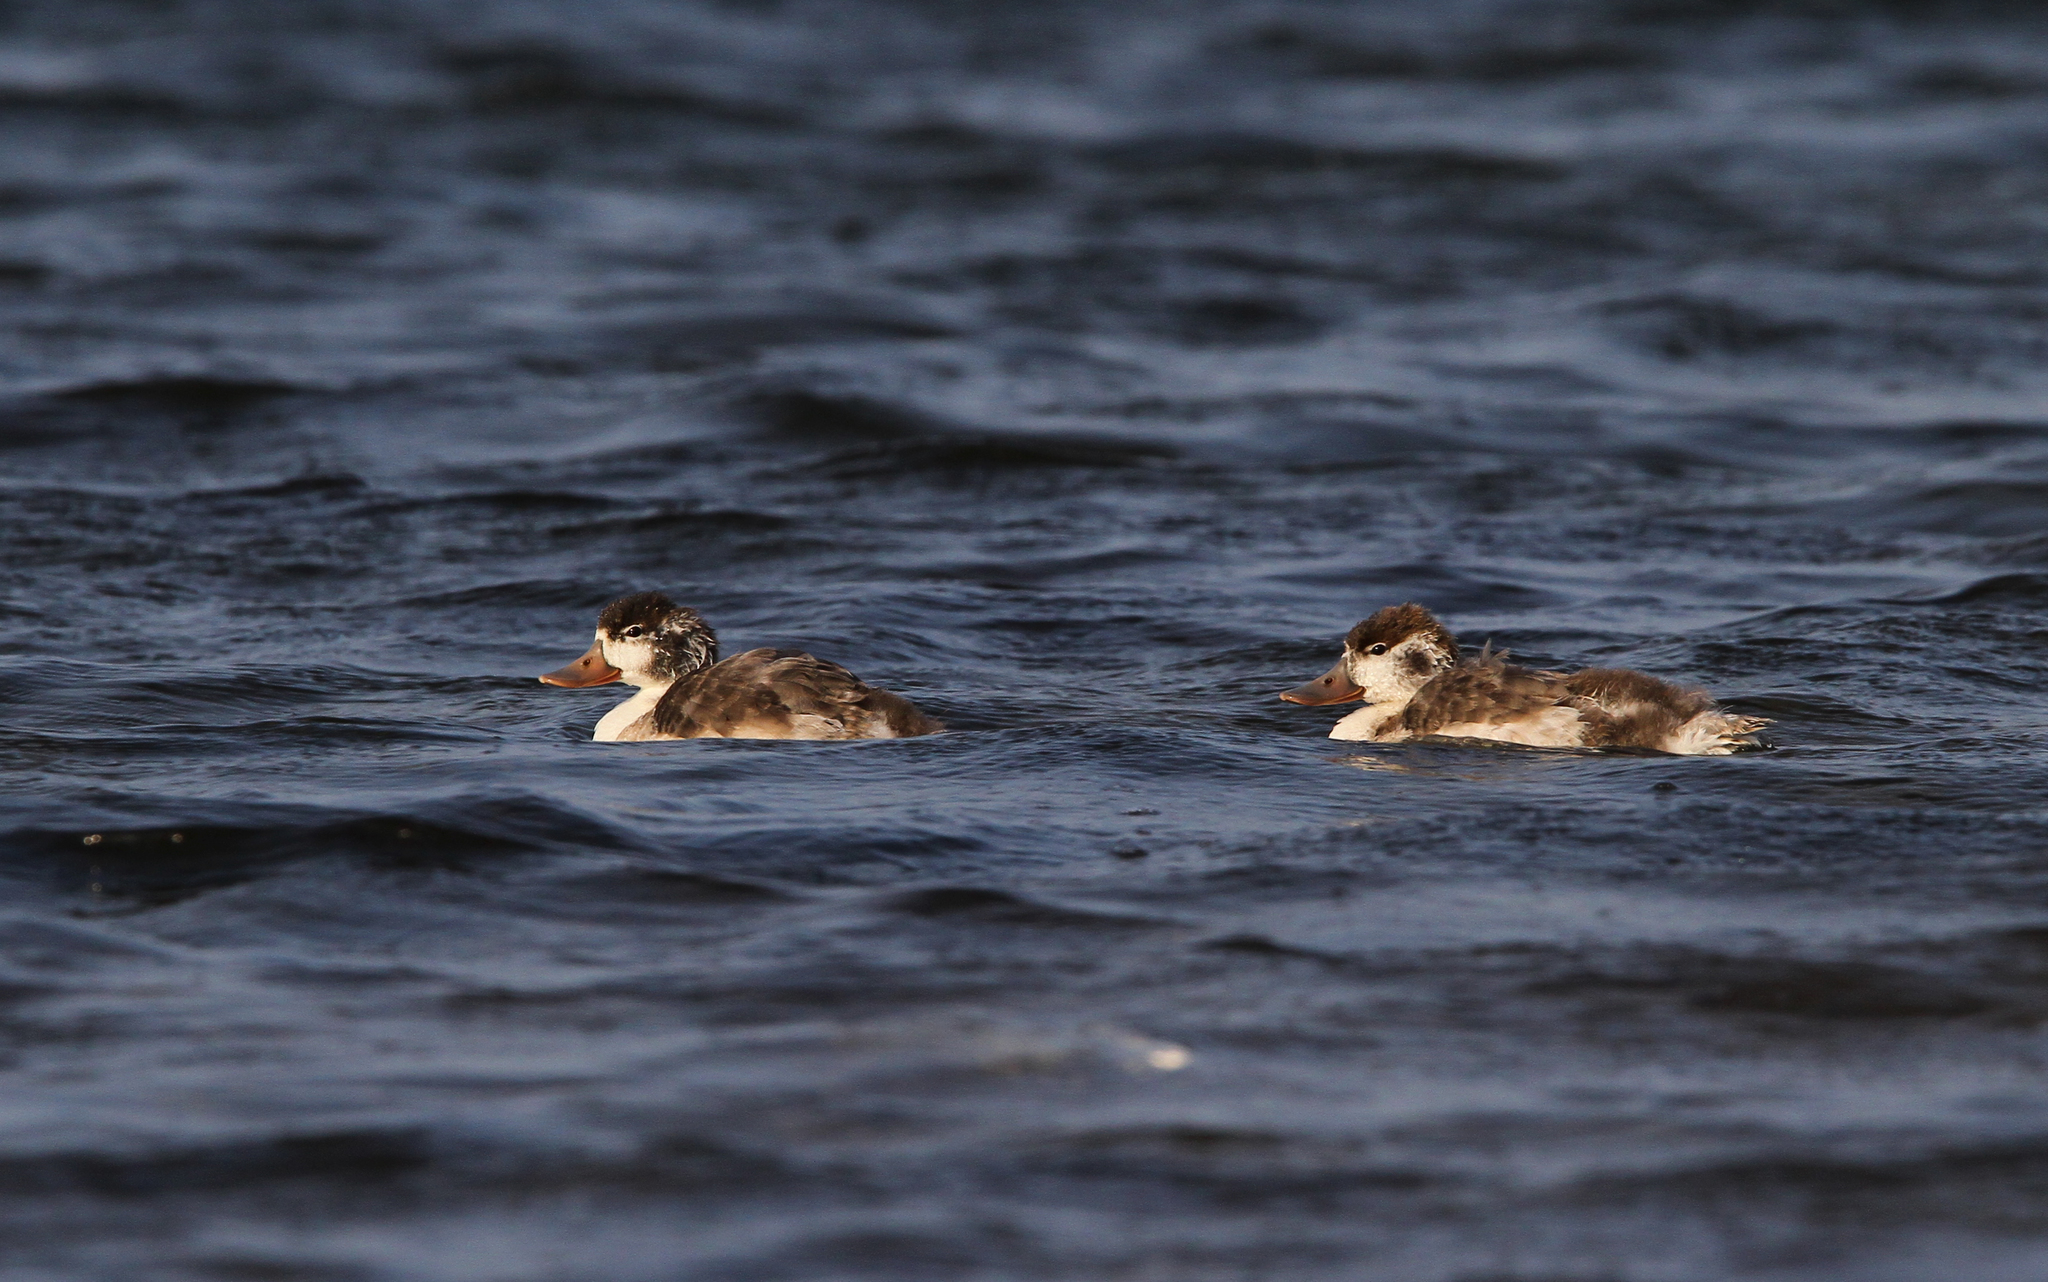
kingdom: Animalia
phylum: Chordata
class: Aves
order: Anseriformes
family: Anatidae
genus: Tadorna
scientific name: Tadorna tadorna
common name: Common shelduck
